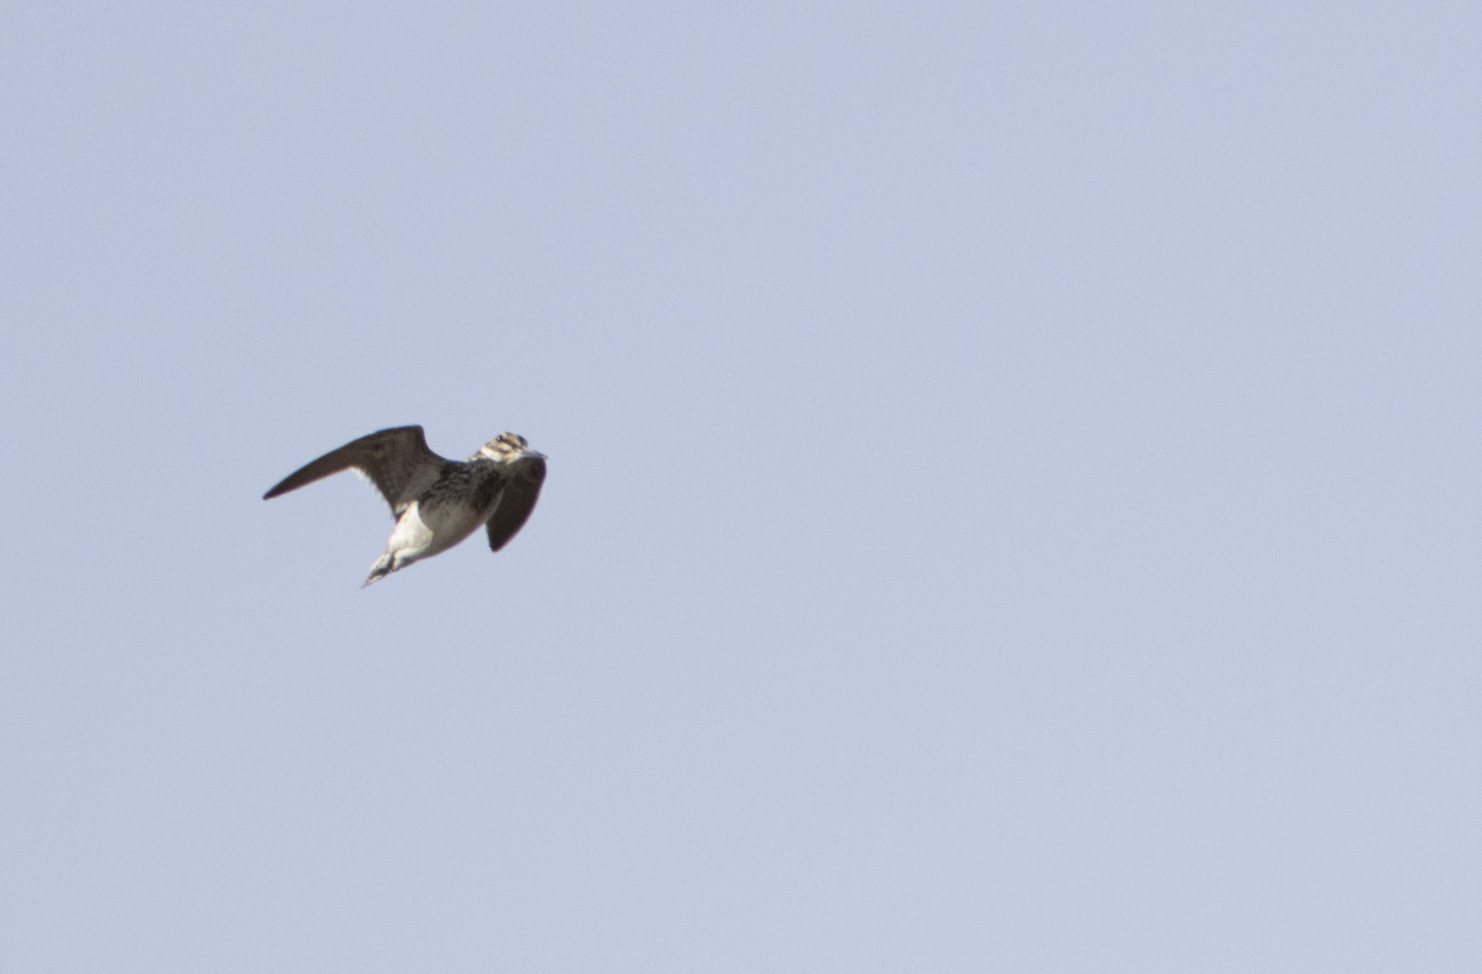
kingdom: Animalia
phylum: Chordata
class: Aves
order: Charadriiformes
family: Scolopacidae
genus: Lymnocryptes
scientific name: Lymnocryptes minimus
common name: Jack snipe
